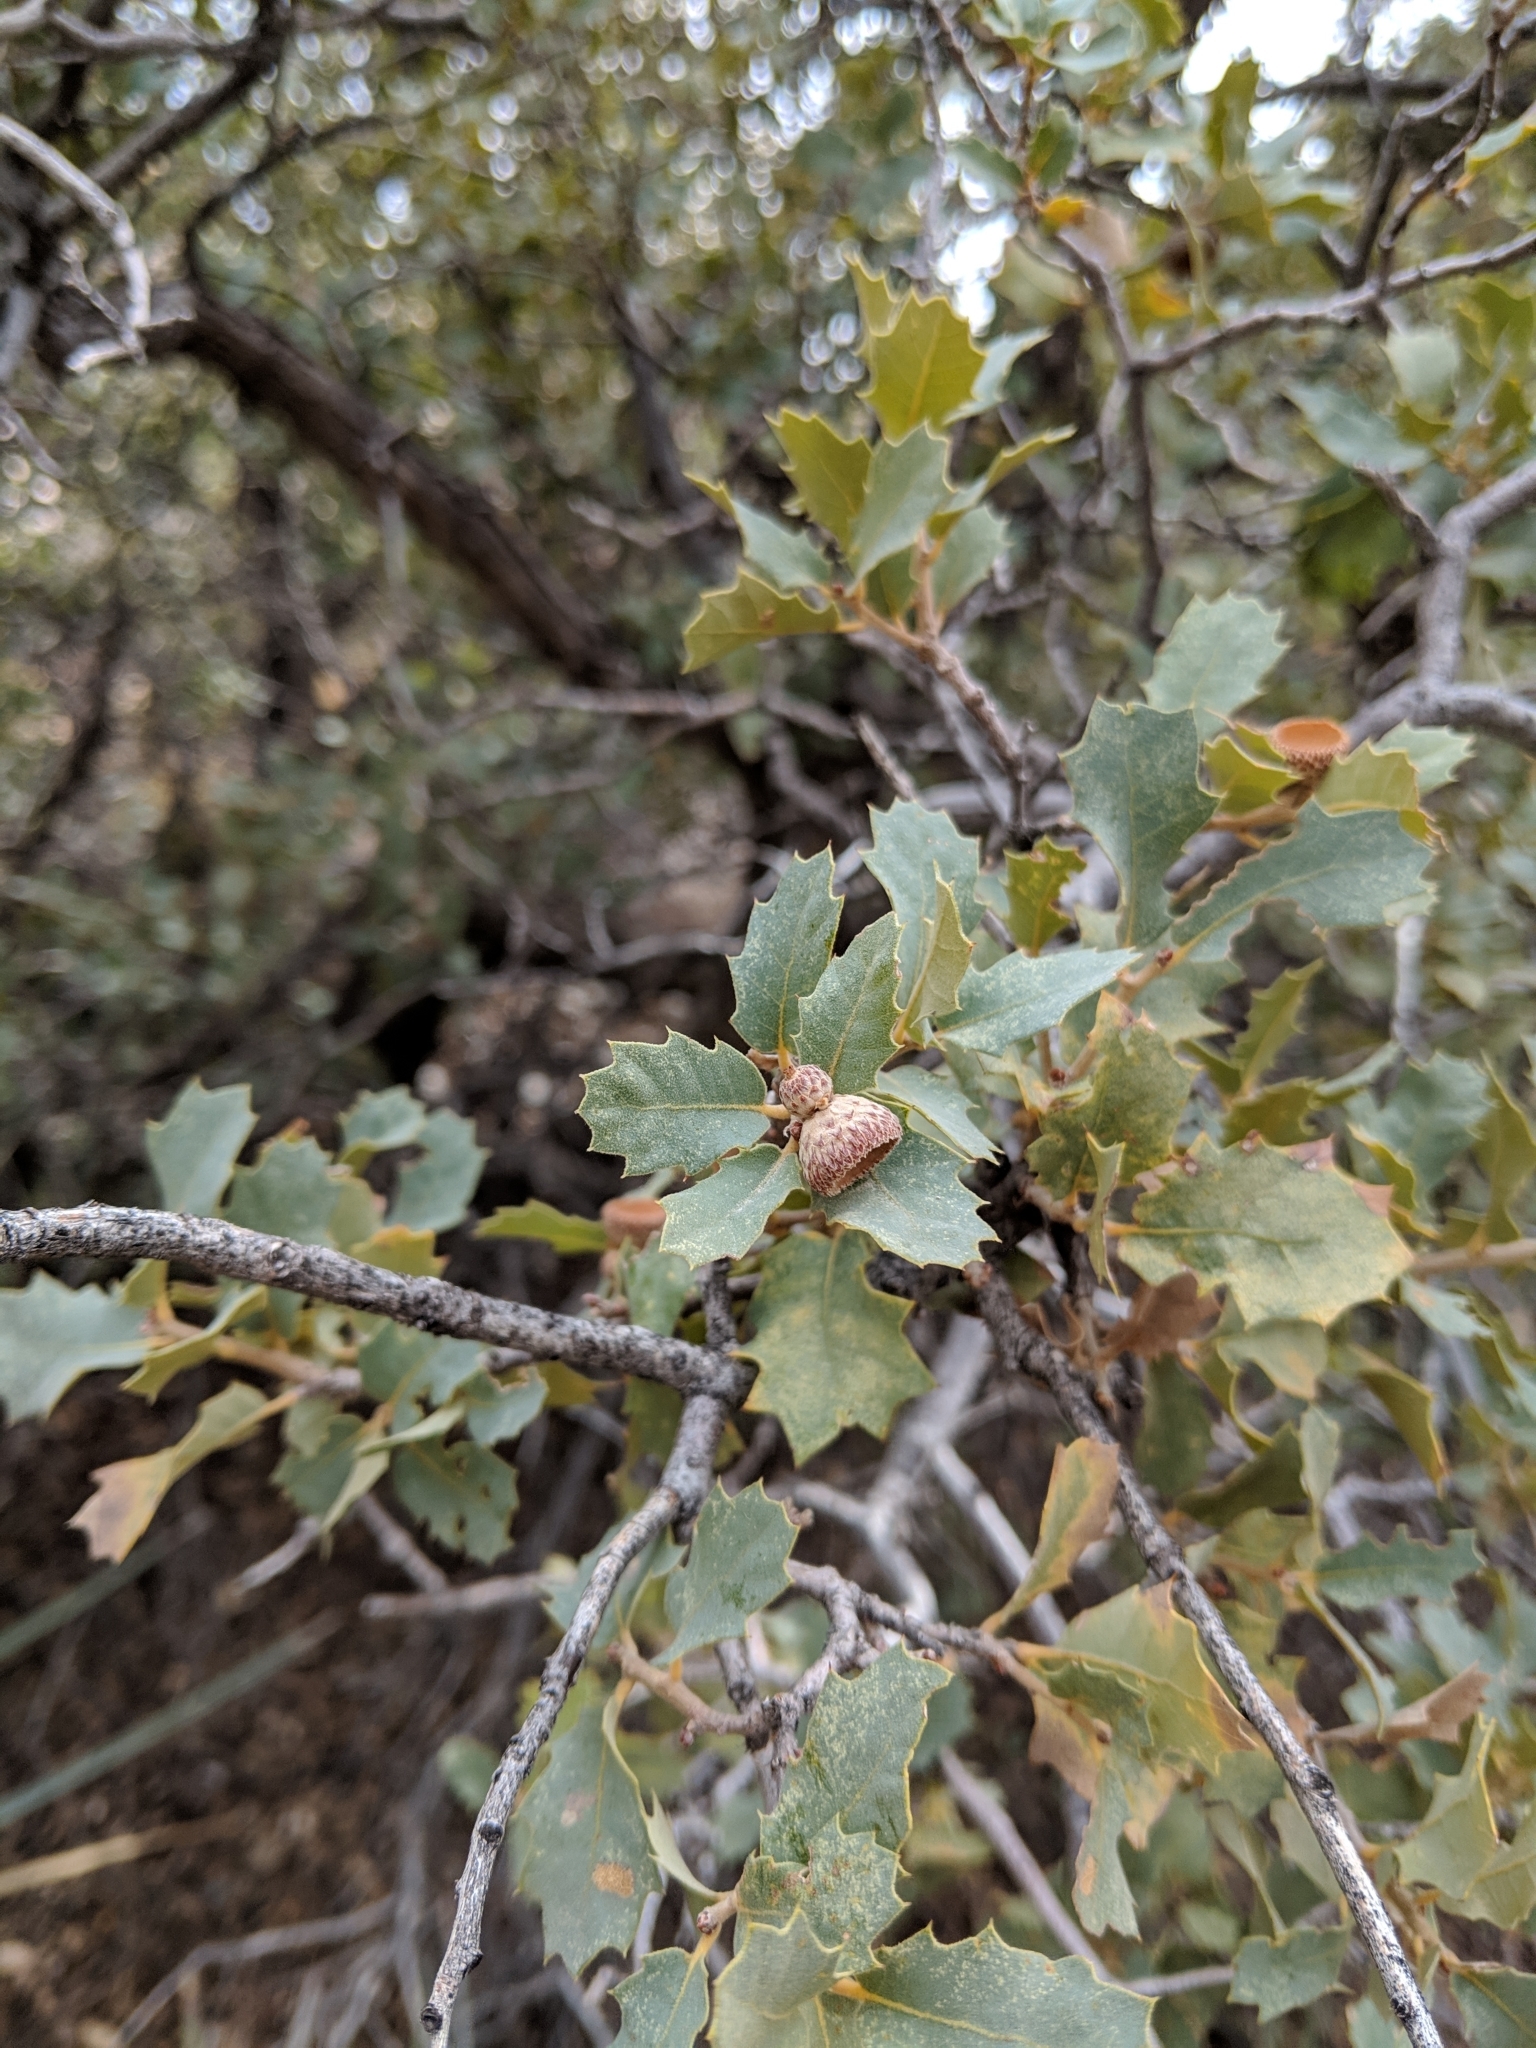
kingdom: Plantae
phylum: Tracheophyta
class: Magnoliopsida
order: Fagales
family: Fagaceae
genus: Quercus
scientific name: Quercus turbinella
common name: Sonoran scrub oak
